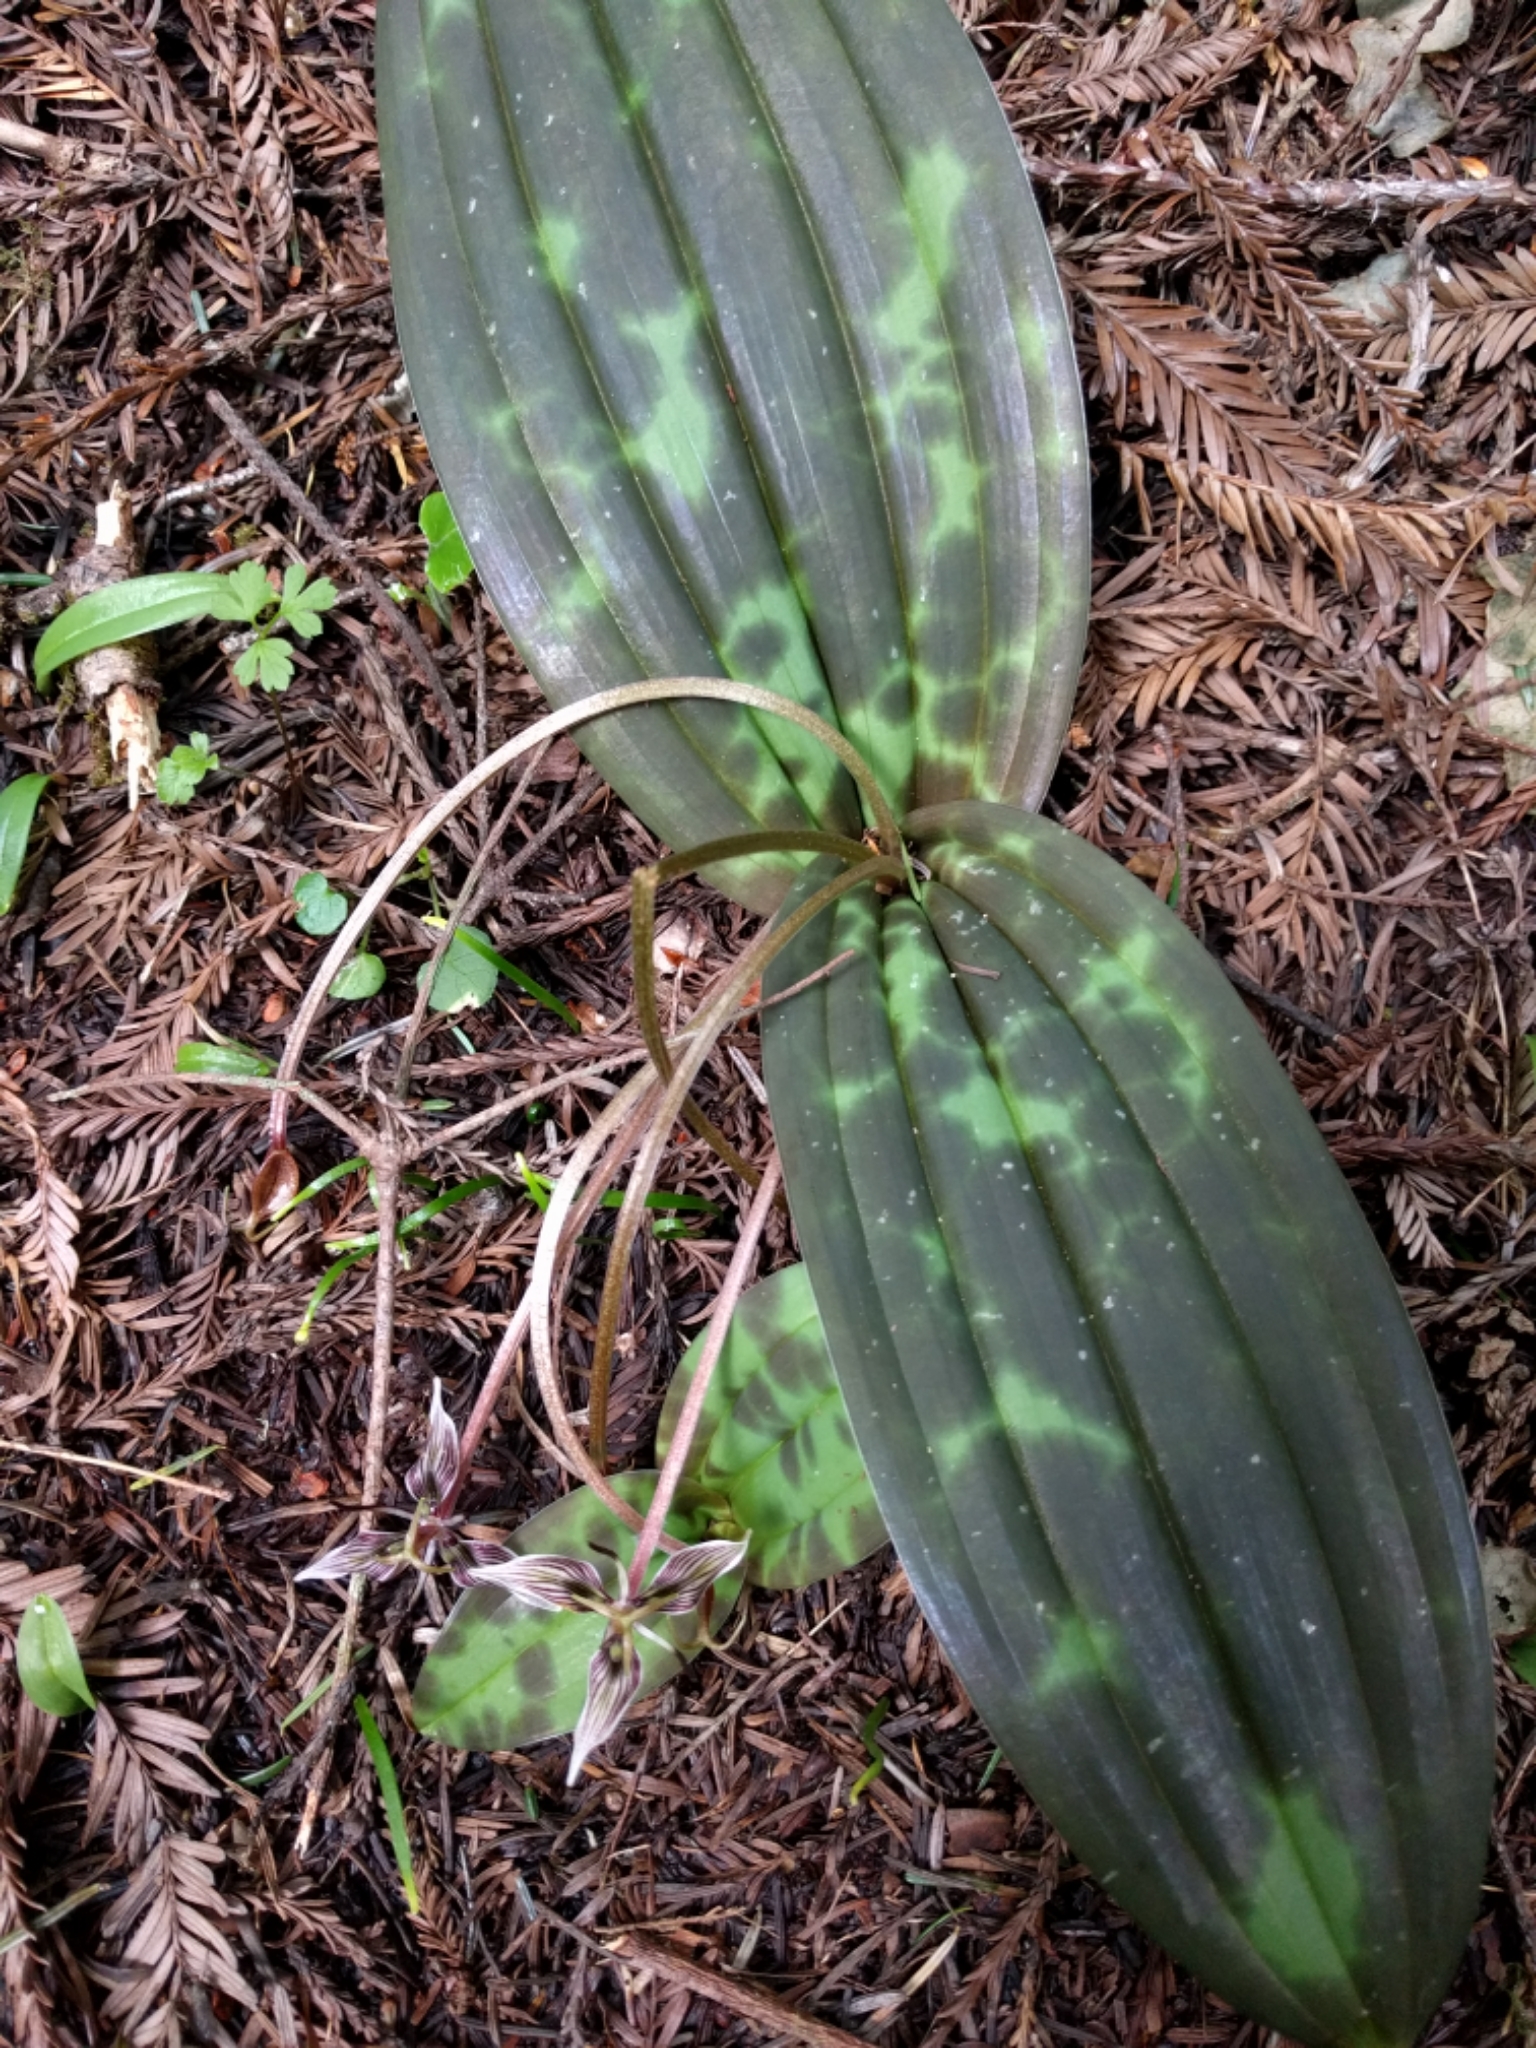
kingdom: Plantae
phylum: Tracheophyta
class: Liliopsida
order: Liliales
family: Liliaceae
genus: Scoliopus
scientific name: Scoliopus bigelovii
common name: Foetid adder's-tongue
